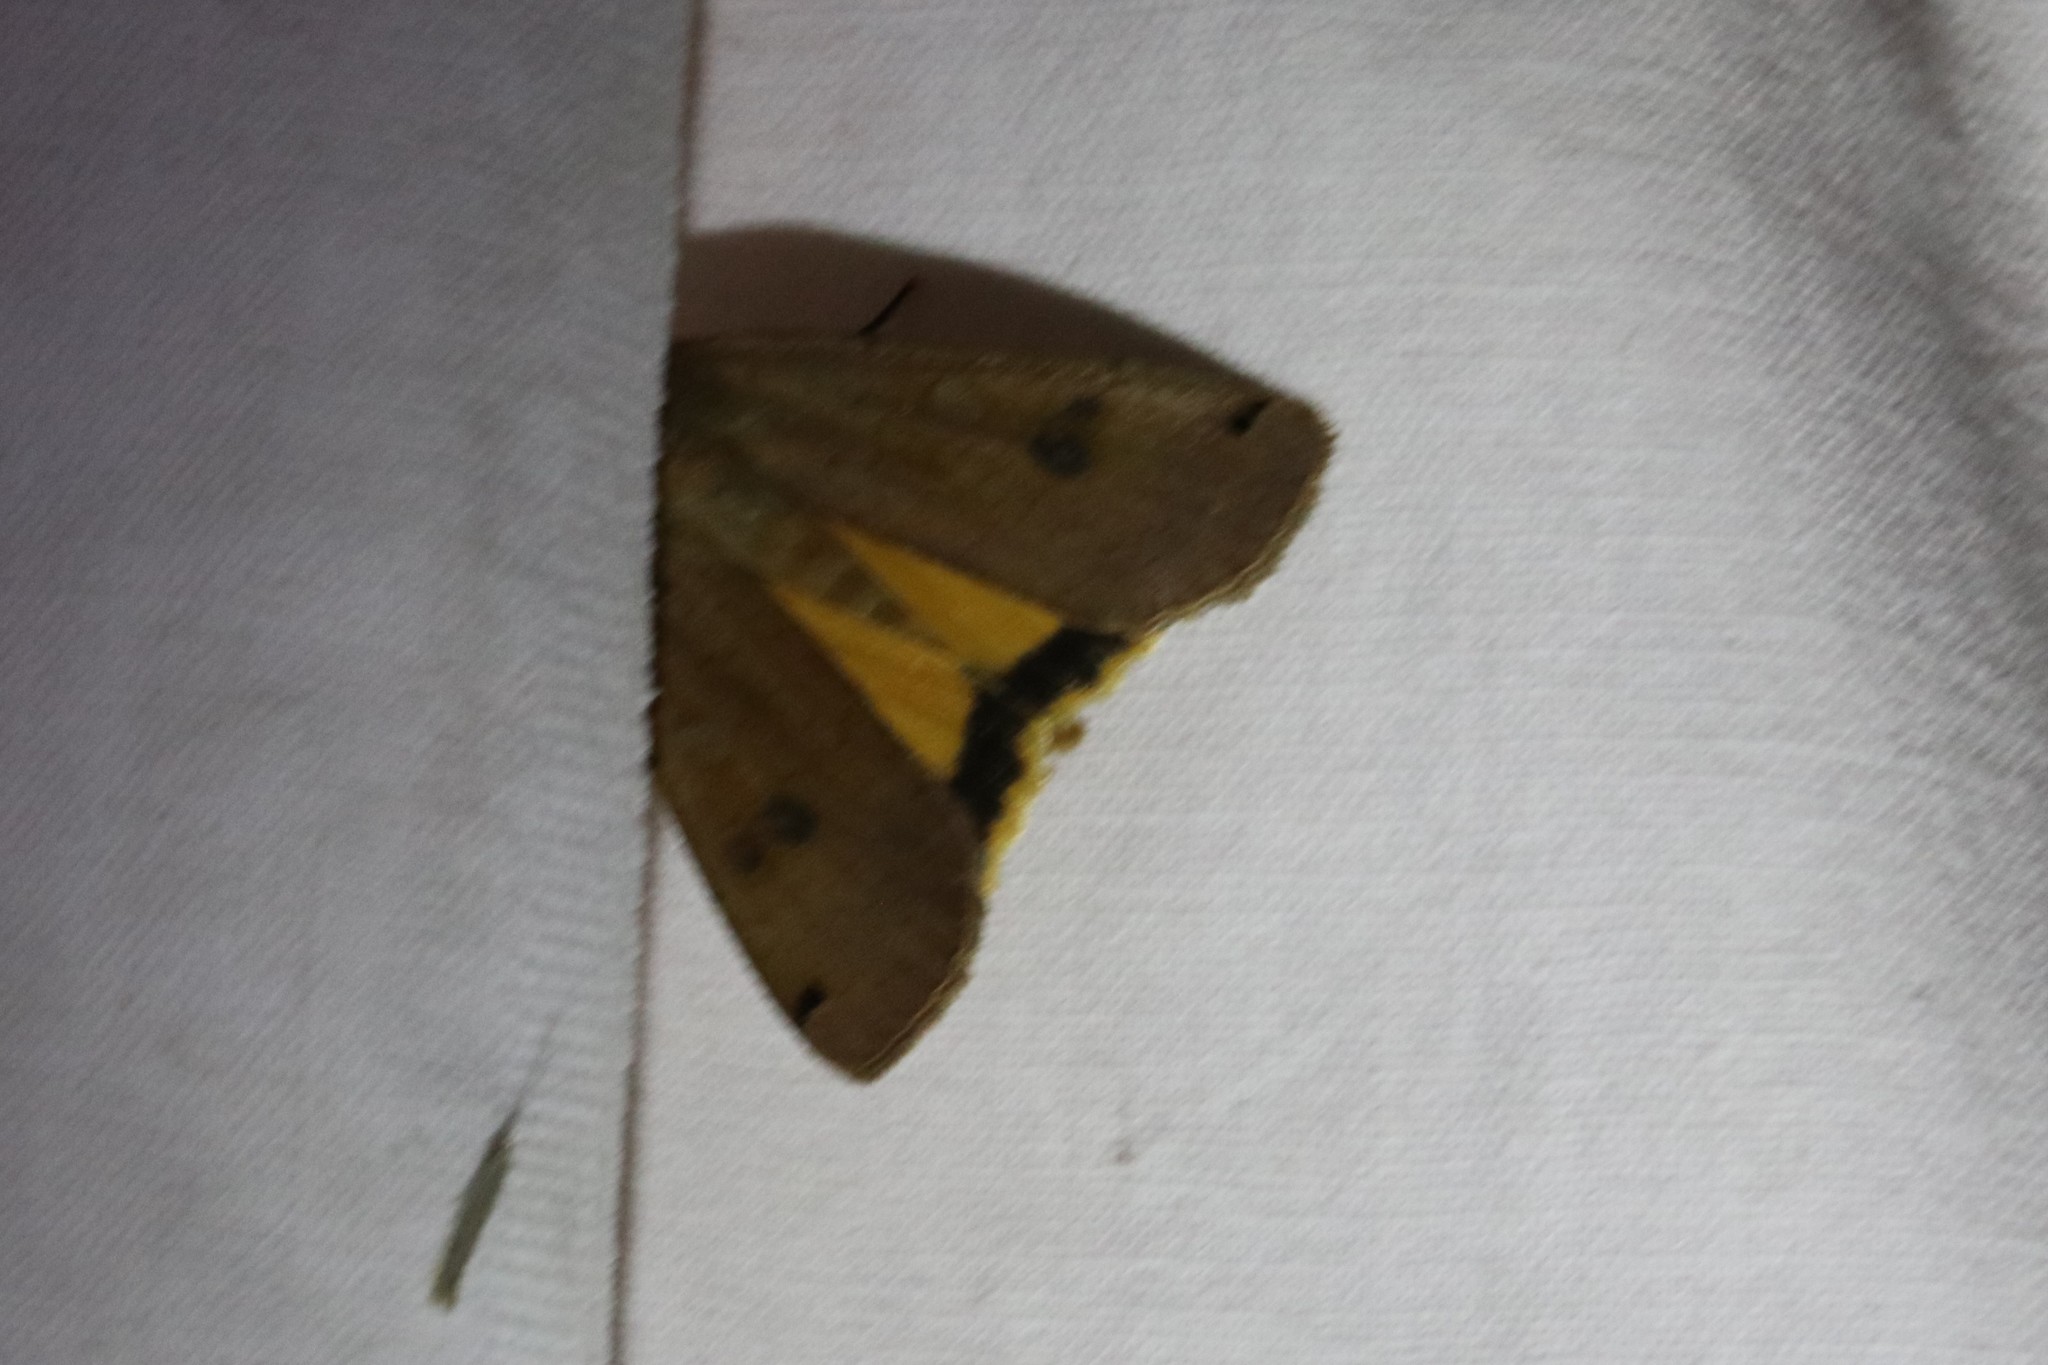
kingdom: Animalia
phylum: Arthropoda
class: Insecta
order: Lepidoptera
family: Noctuidae
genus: Noctua
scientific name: Noctua pronuba
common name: Large yellow underwing
